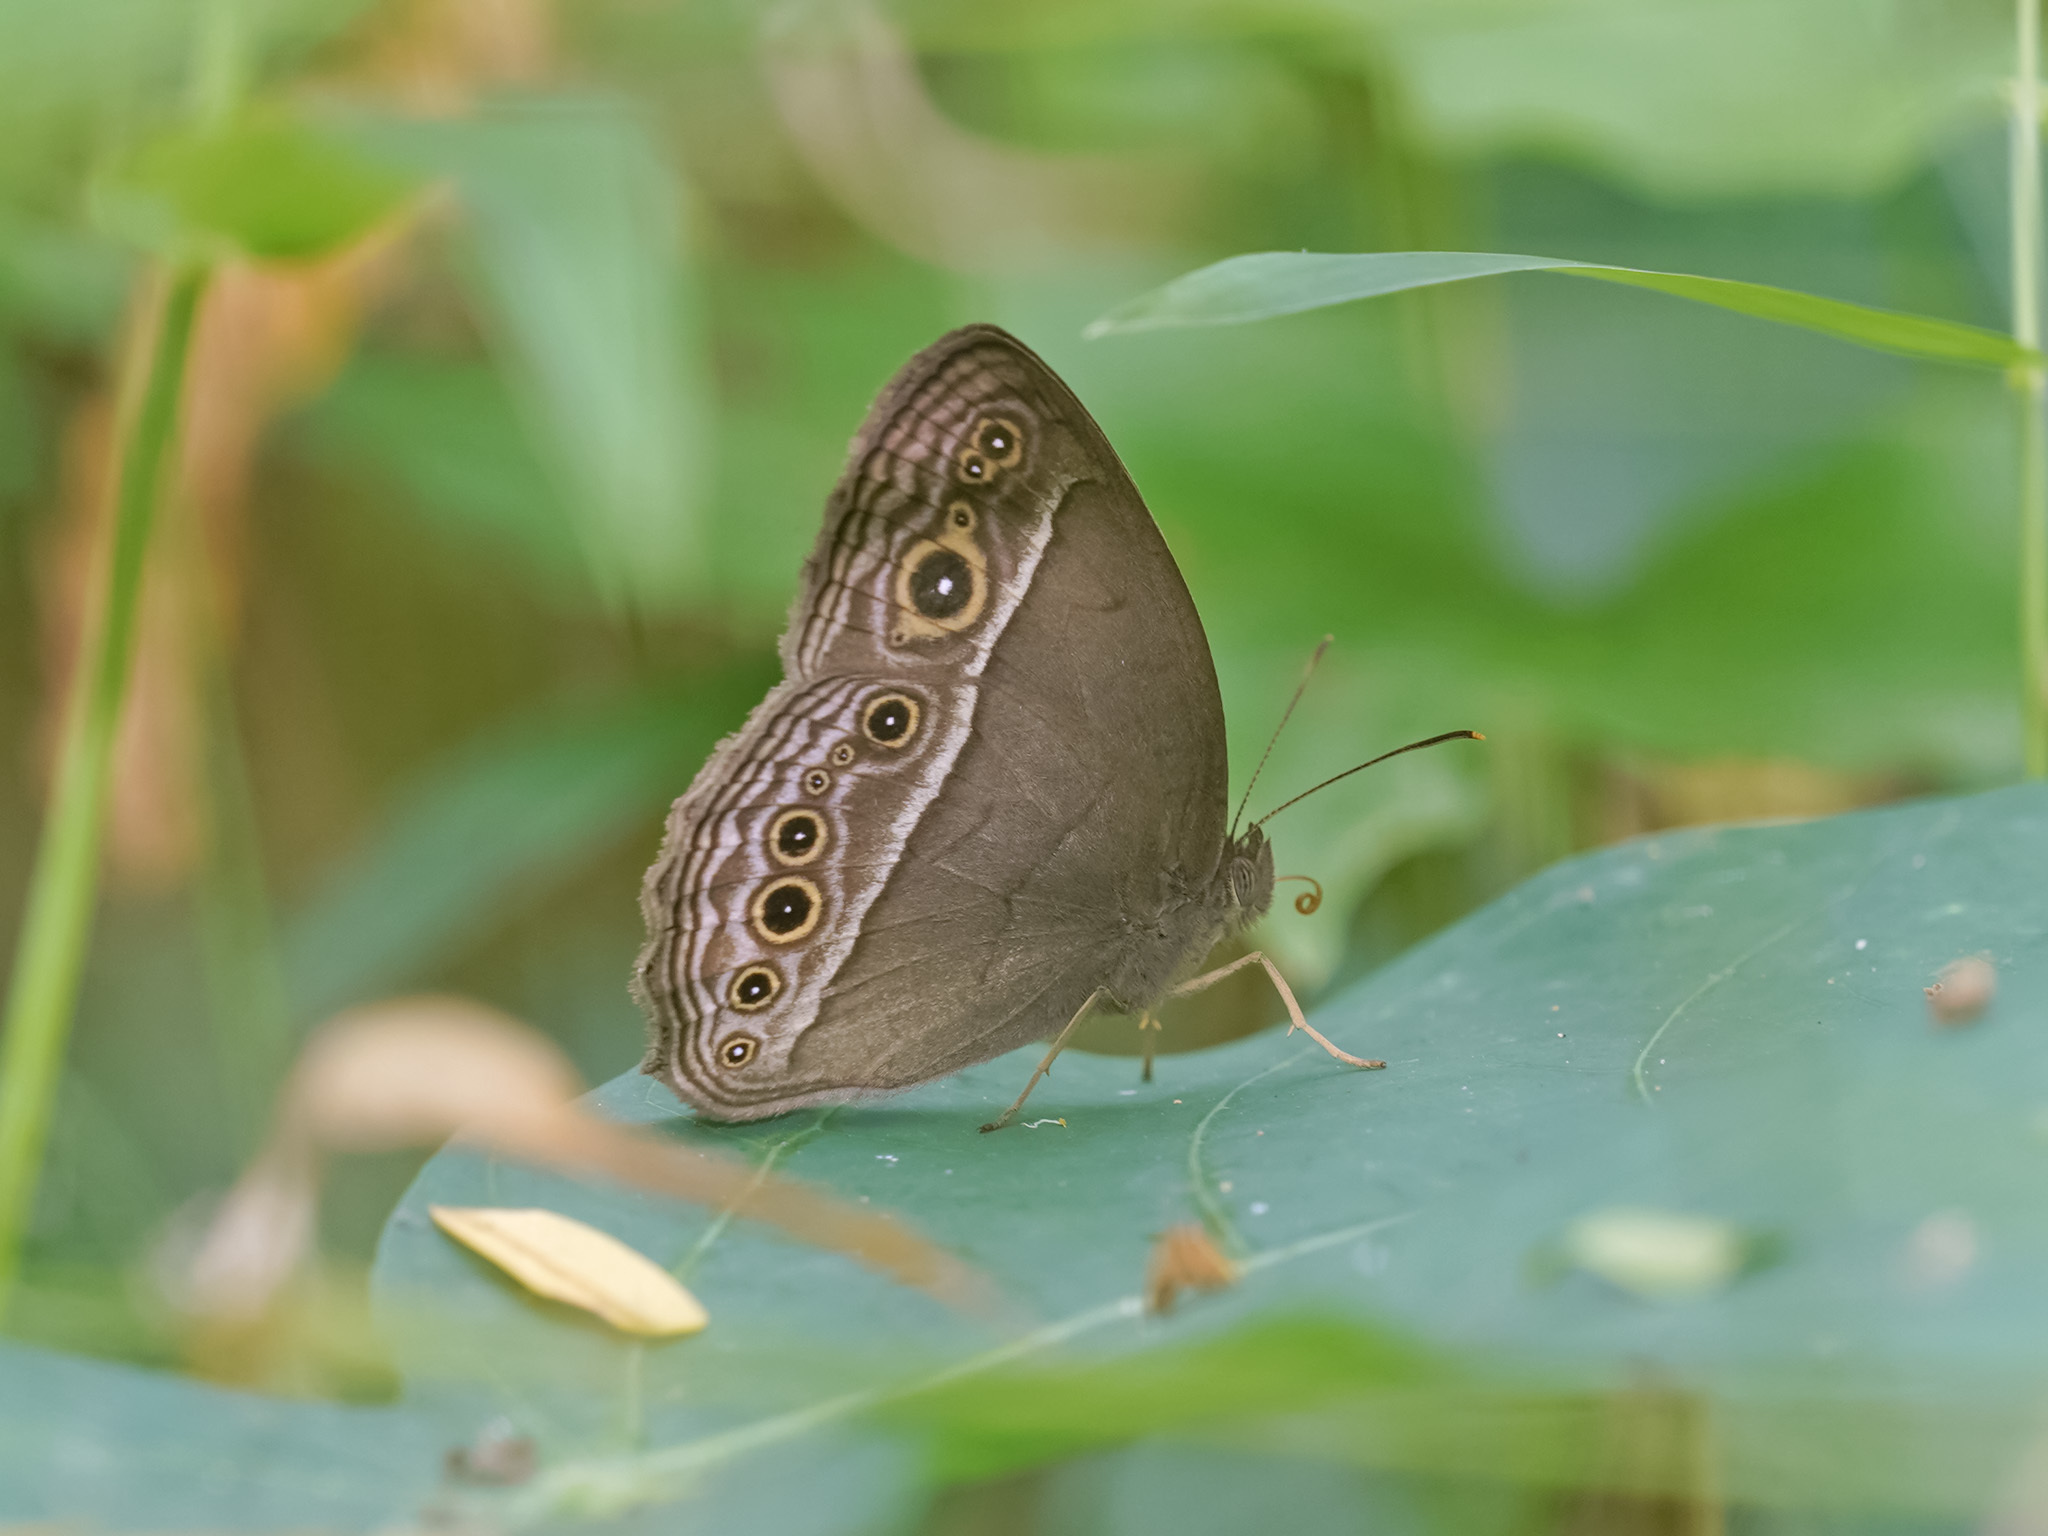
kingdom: Animalia
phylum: Arthropoda
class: Insecta
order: Lepidoptera
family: Nymphalidae
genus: Mycalesis
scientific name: Mycalesis perseoides
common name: Burmese bushbrown
